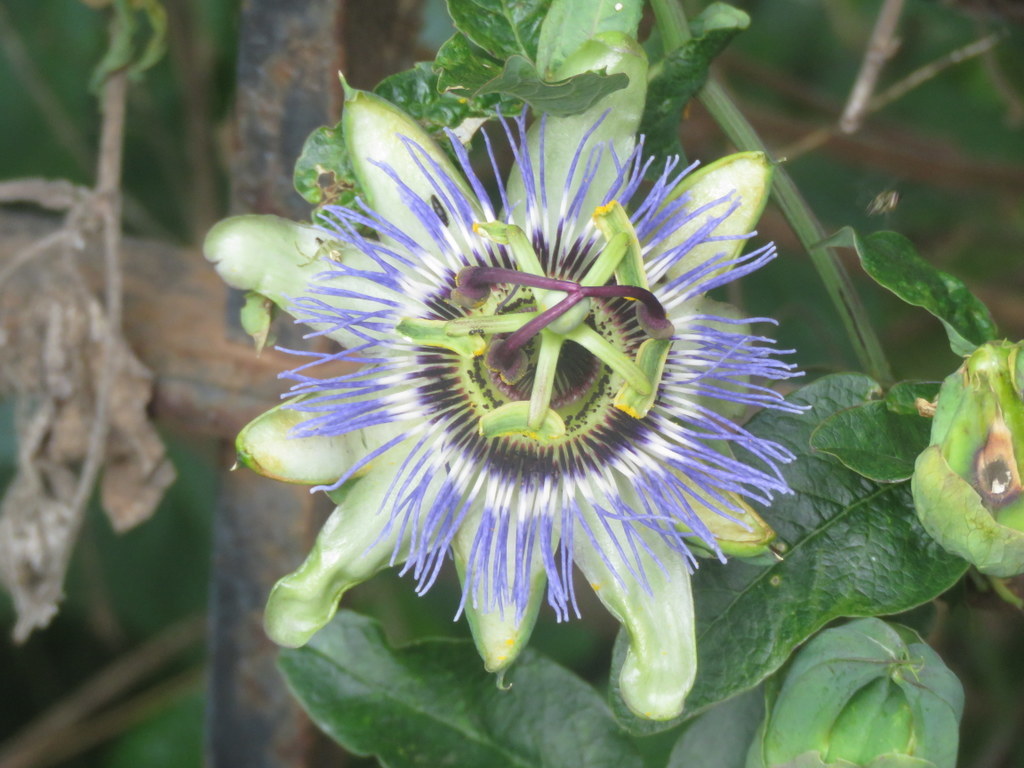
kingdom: Plantae
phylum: Tracheophyta
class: Magnoliopsida
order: Malpighiales
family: Passifloraceae
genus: Passiflora
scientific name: Passiflora caerulea
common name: Blue passionflower
